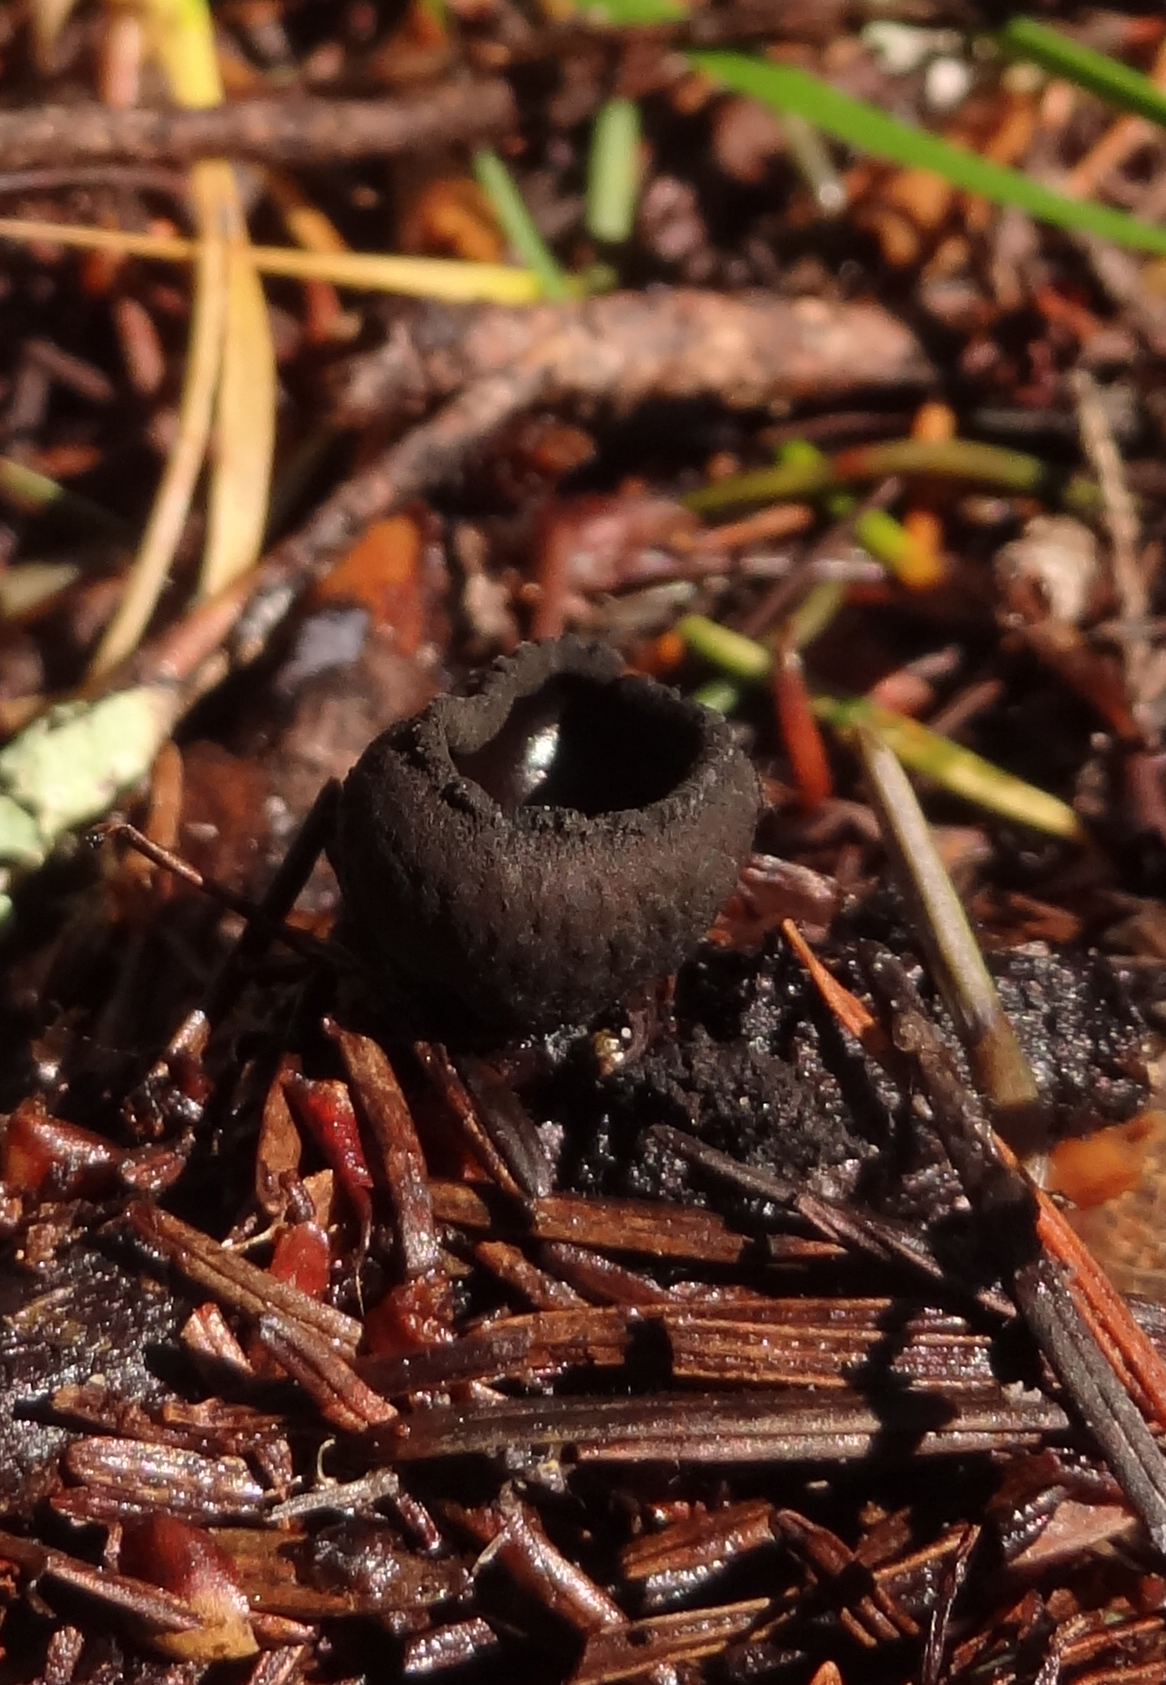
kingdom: Fungi
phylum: Ascomycota
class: Pezizomycetes
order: Pezizales
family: Sarcosomataceae
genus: Pseudoplectania
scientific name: Pseudoplectania nigrella
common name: Ebony cup
